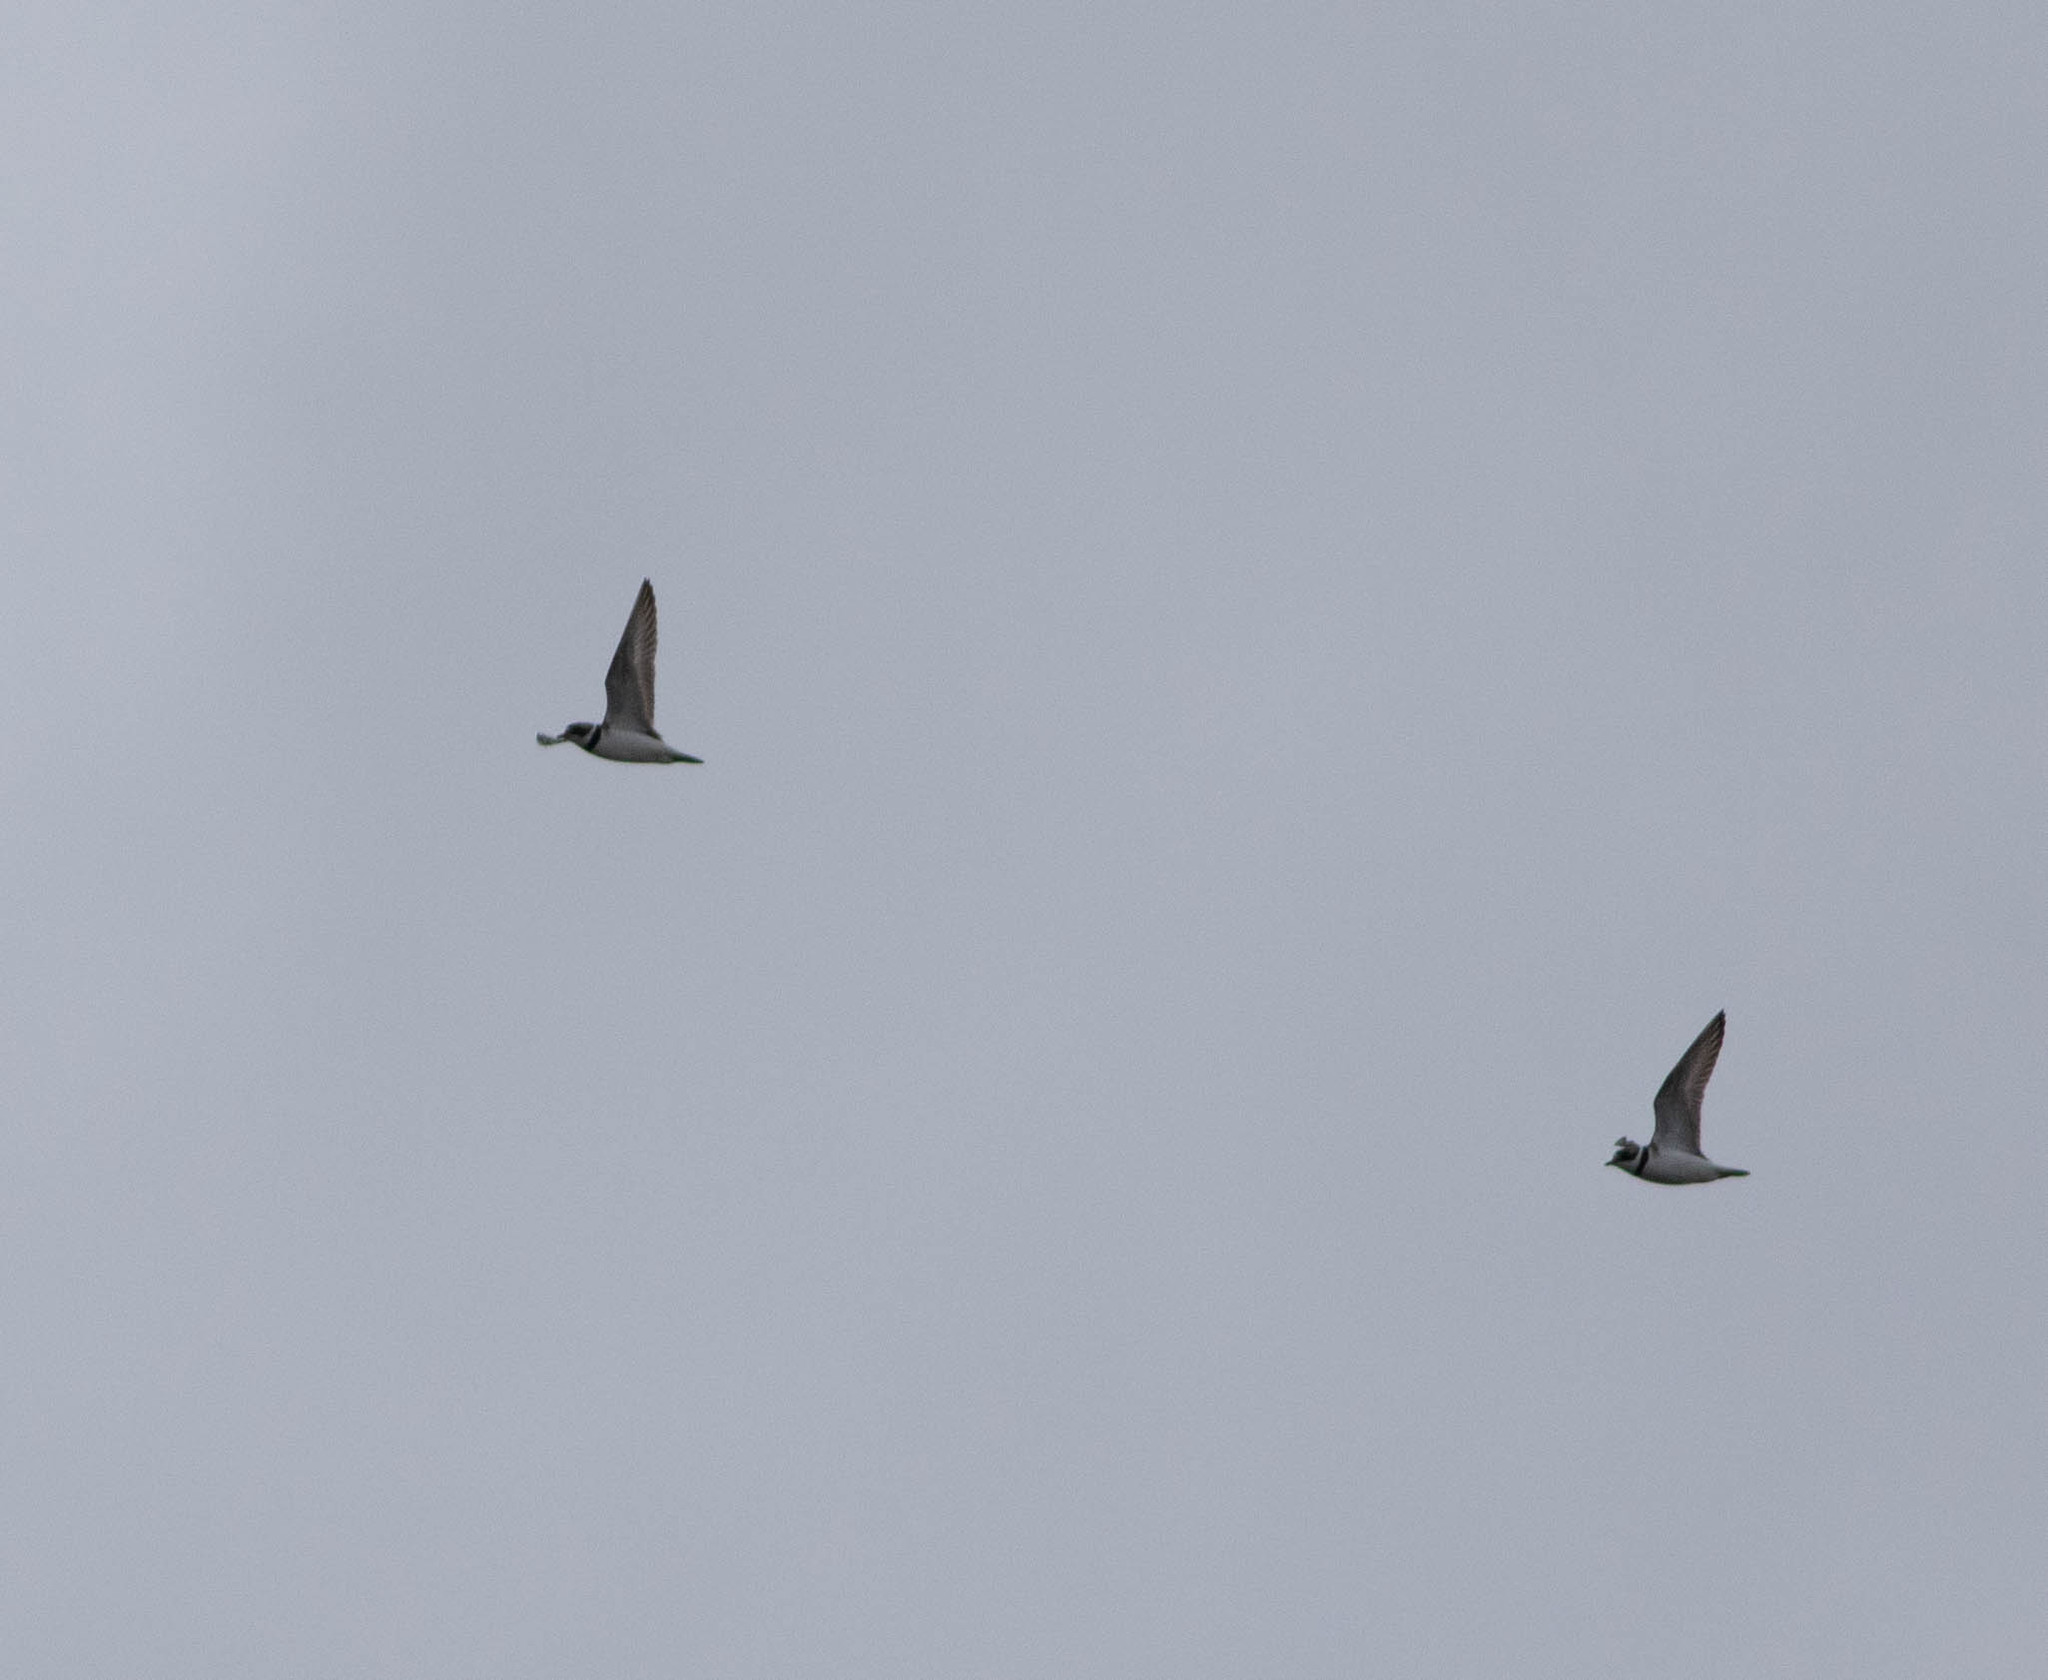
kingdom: Animalia
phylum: Chordata
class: Aves
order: Charadriiformes
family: Charadriidae
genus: Charadrius
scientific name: Charadrius semipalmatus
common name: Semipalmated plover
